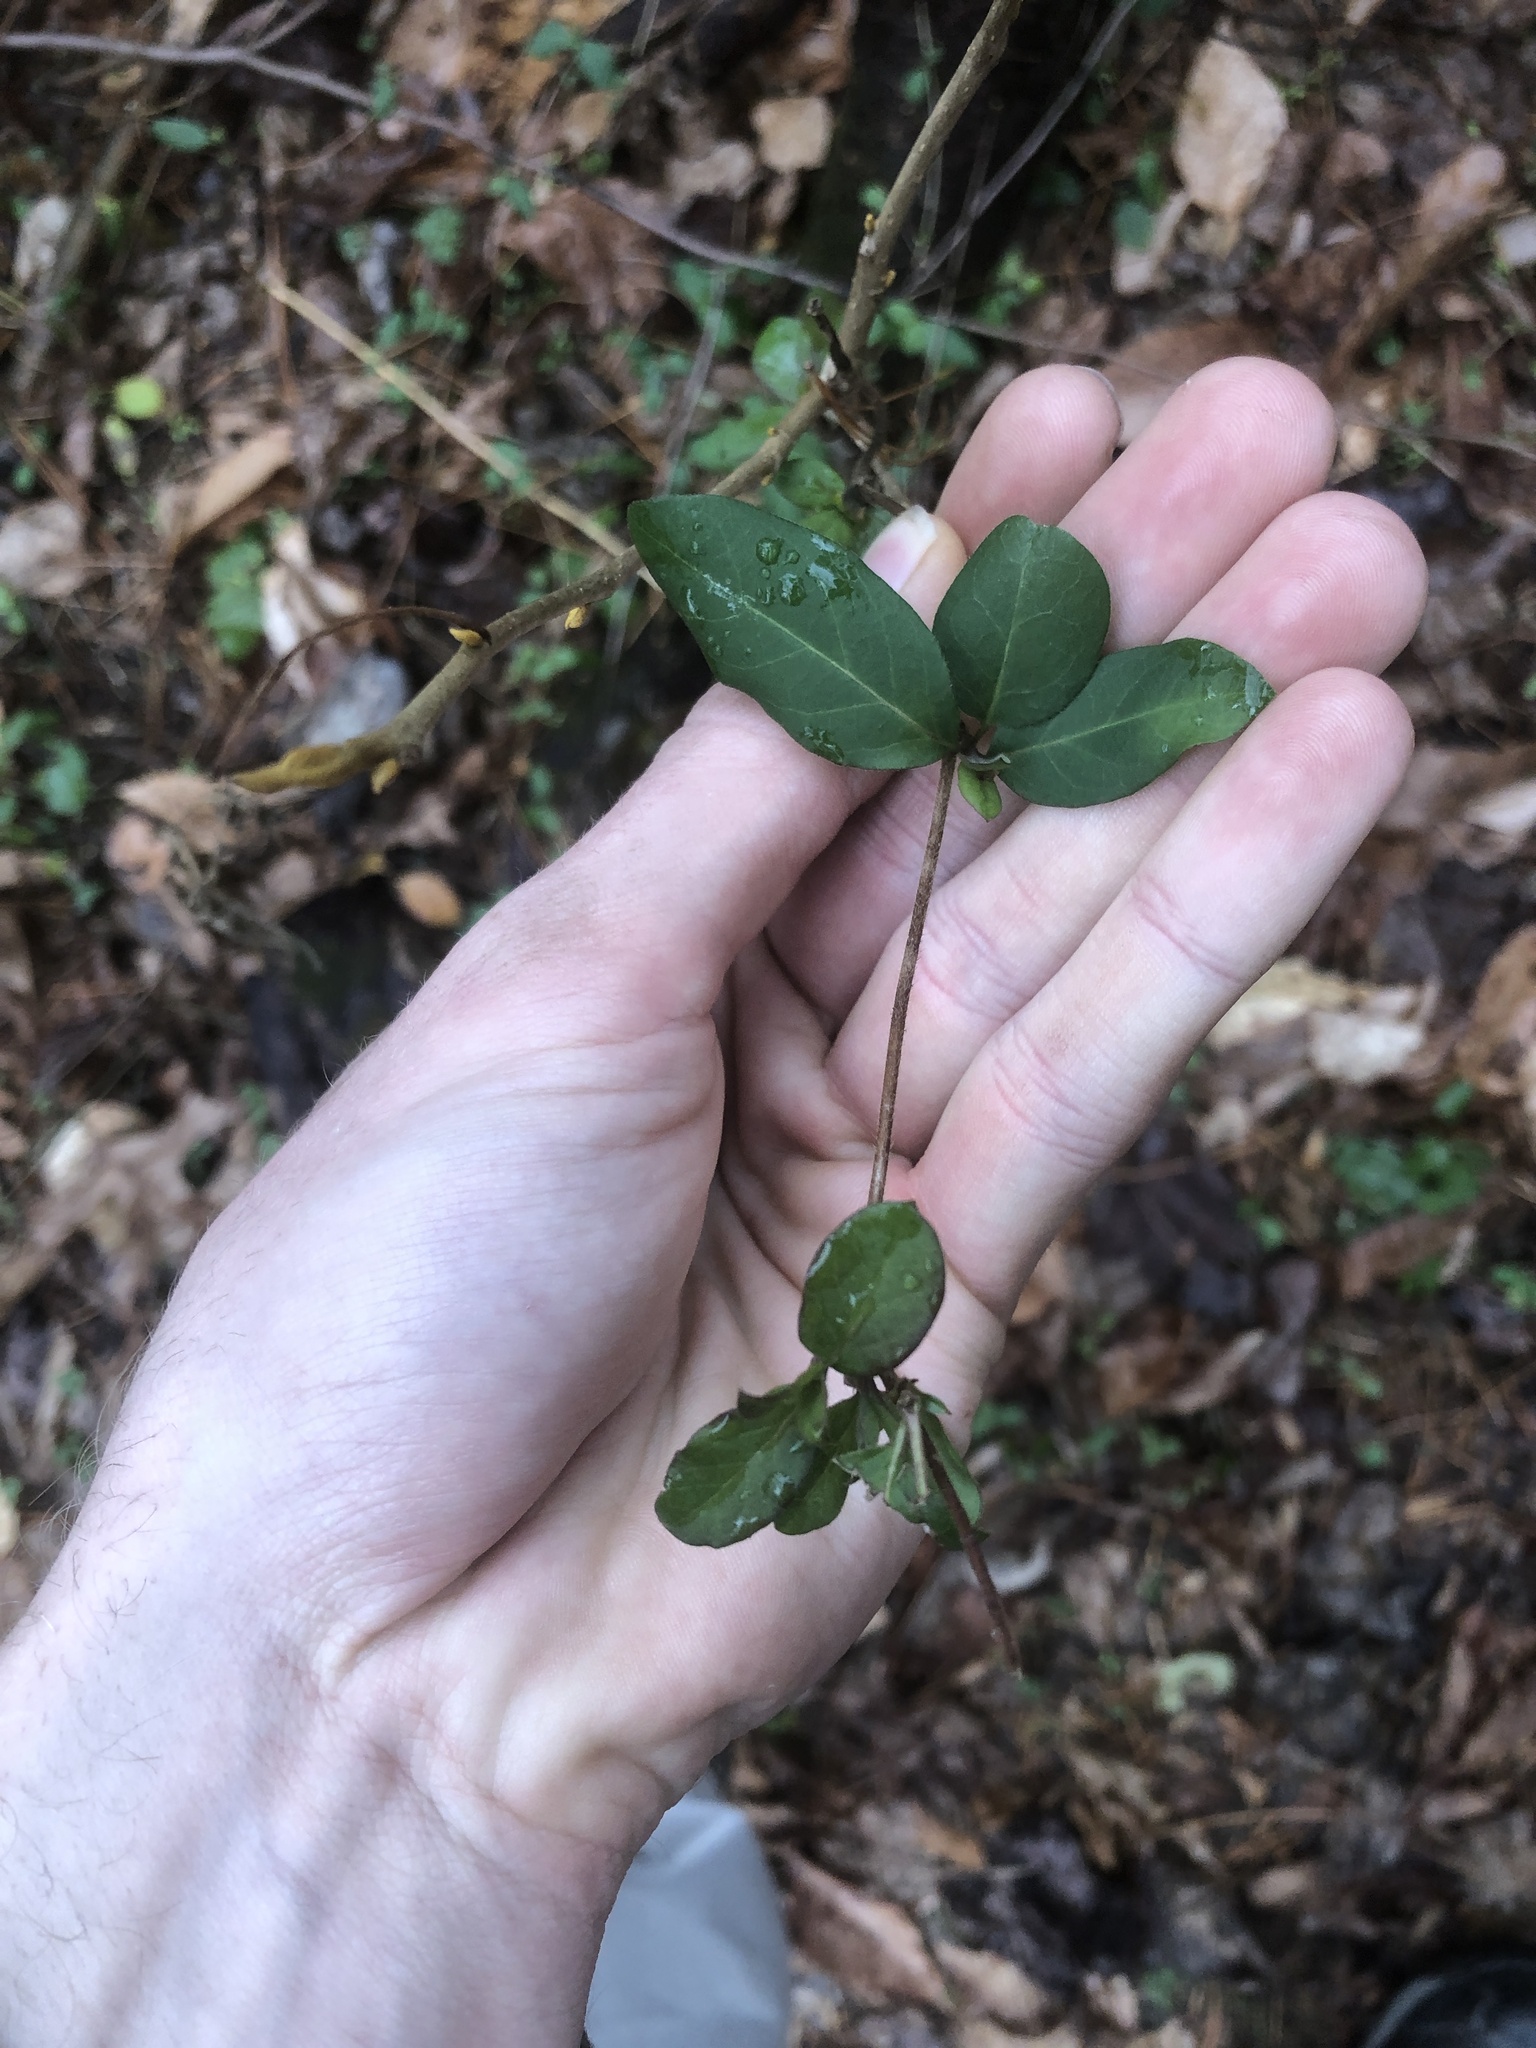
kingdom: Plantae
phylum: Tracheophyta
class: Magnoliopsida
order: Dipsacales
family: Caprifoliaceae
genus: Lonicera
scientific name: Lonicera japonica
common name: Japanese honeysuckle
